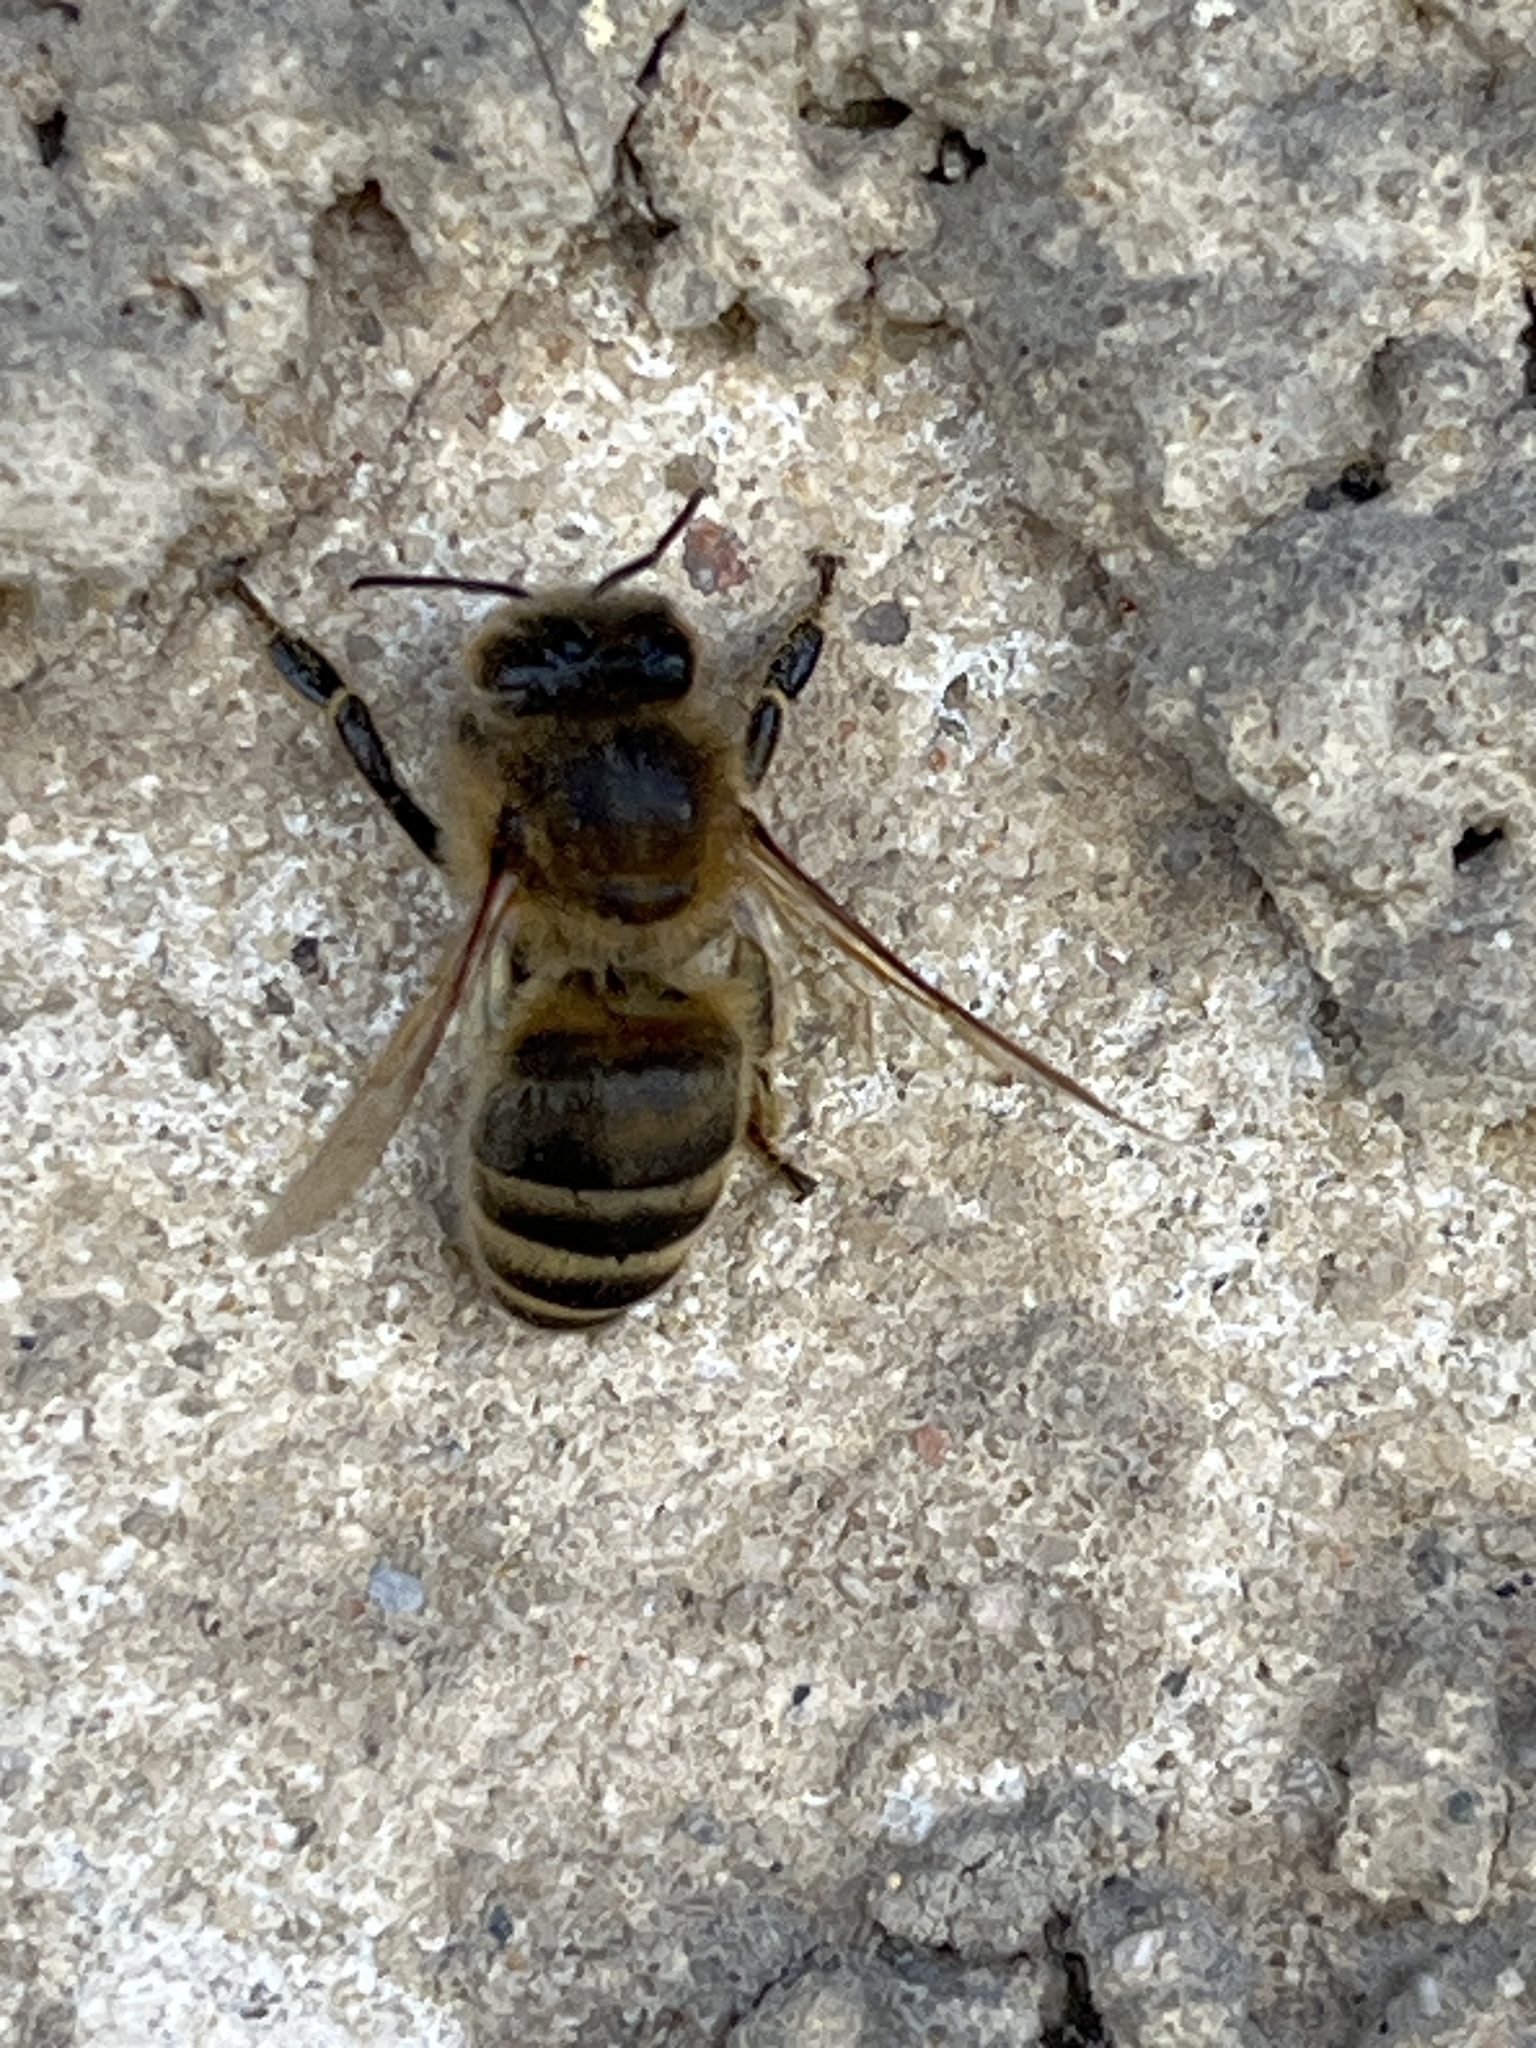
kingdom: Animalia
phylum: Arthropoda
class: Insecta
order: Hymenoptera
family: Apidae
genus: Apis
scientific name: Apis mellifera
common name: Honey bee
